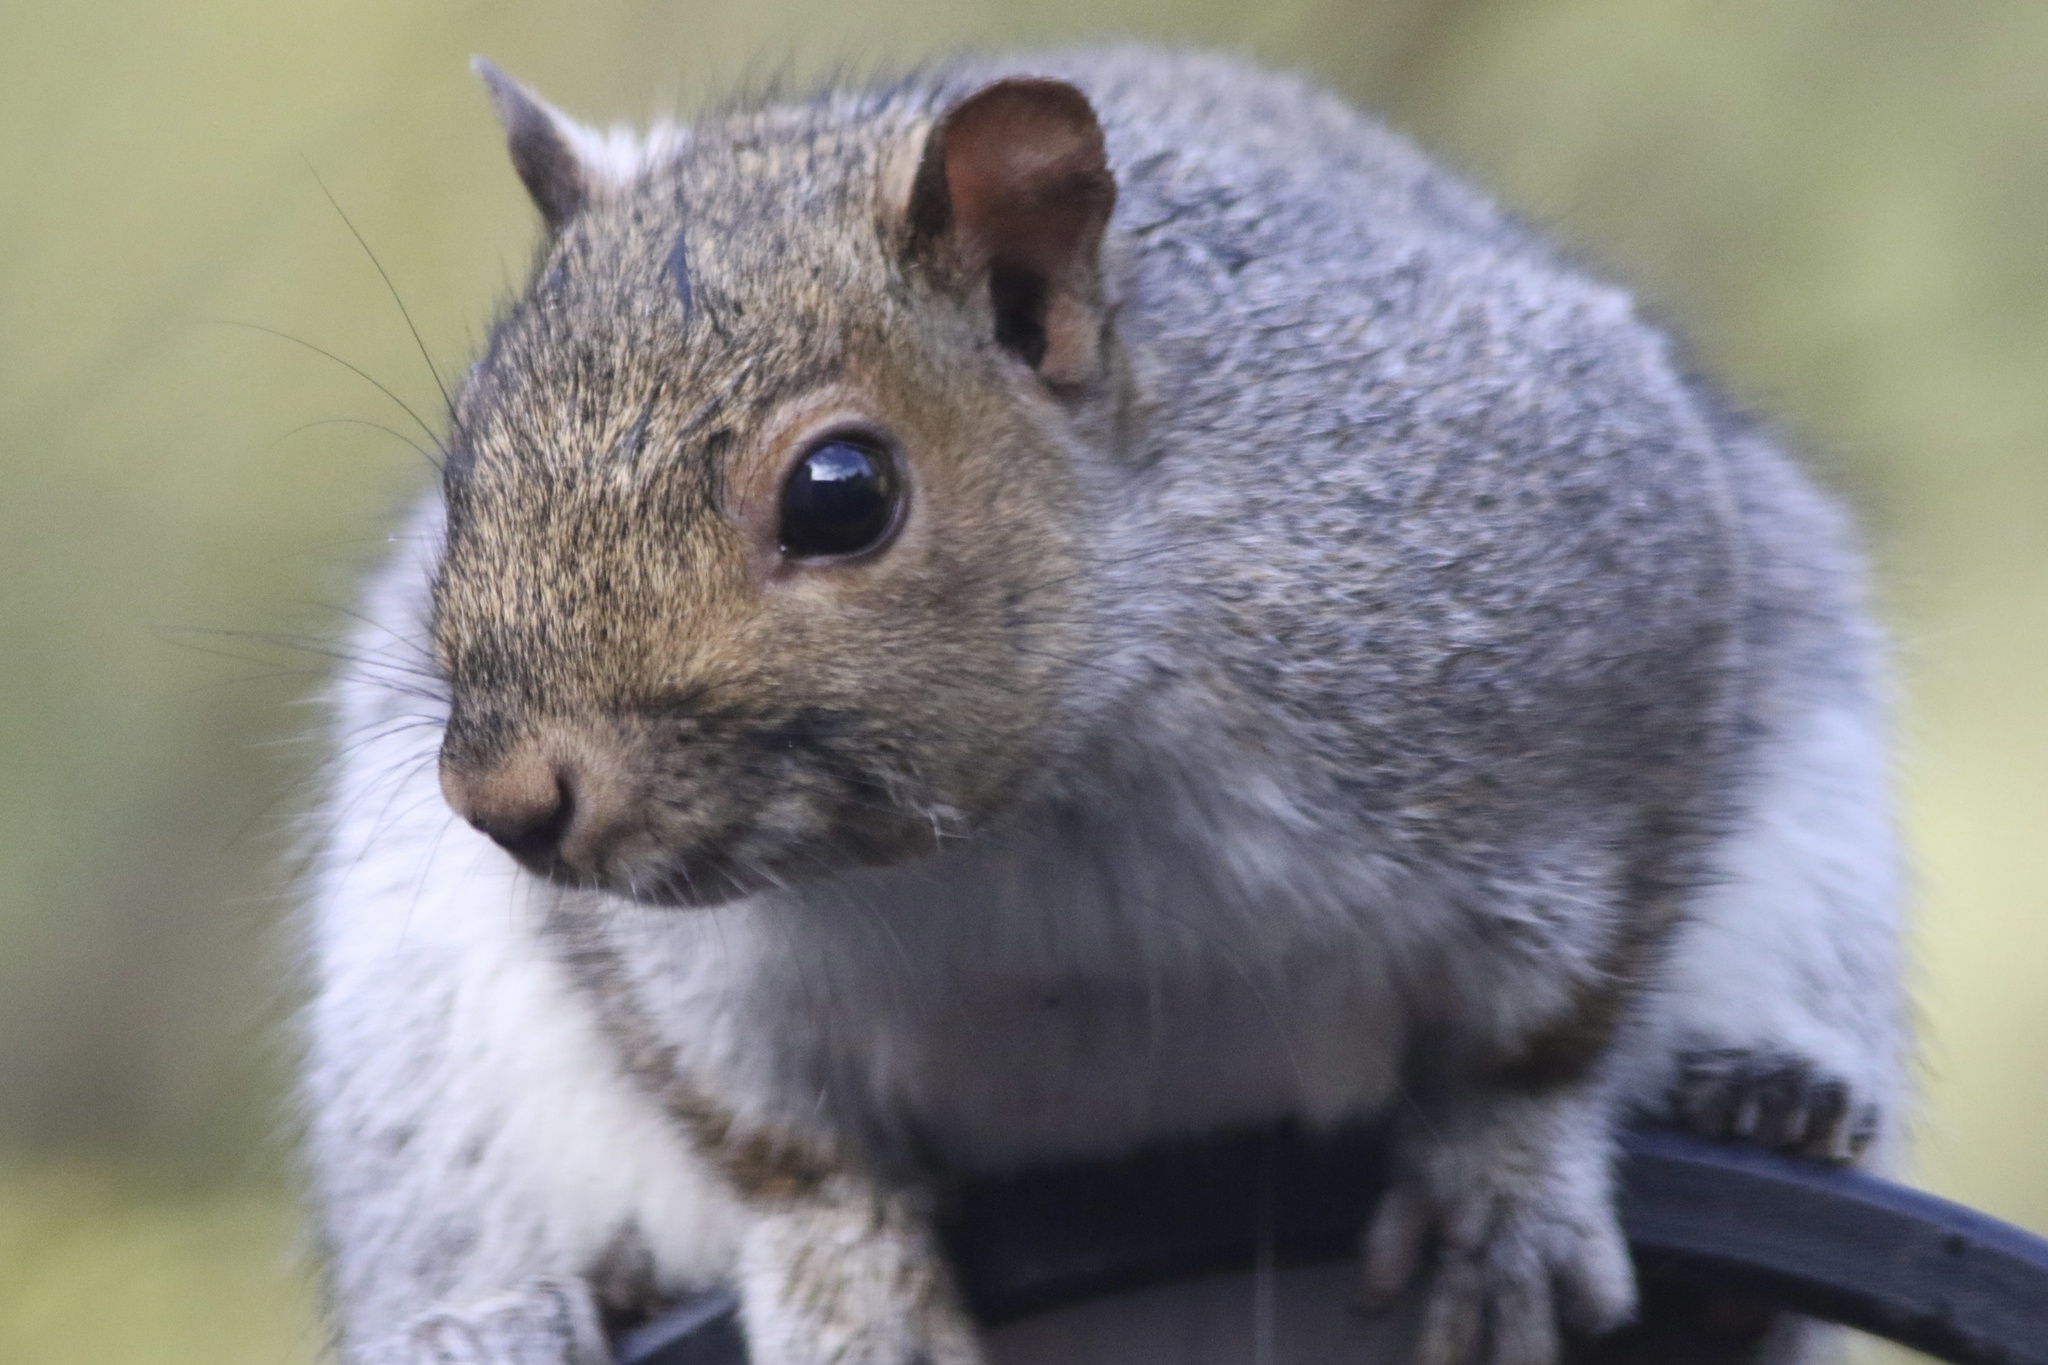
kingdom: Animalia
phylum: Chordata
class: Mammalia
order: Rodentia
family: Sciuridae
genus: Sciurus
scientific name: Sciurus carolinensis
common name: Eastern gray squirrel
